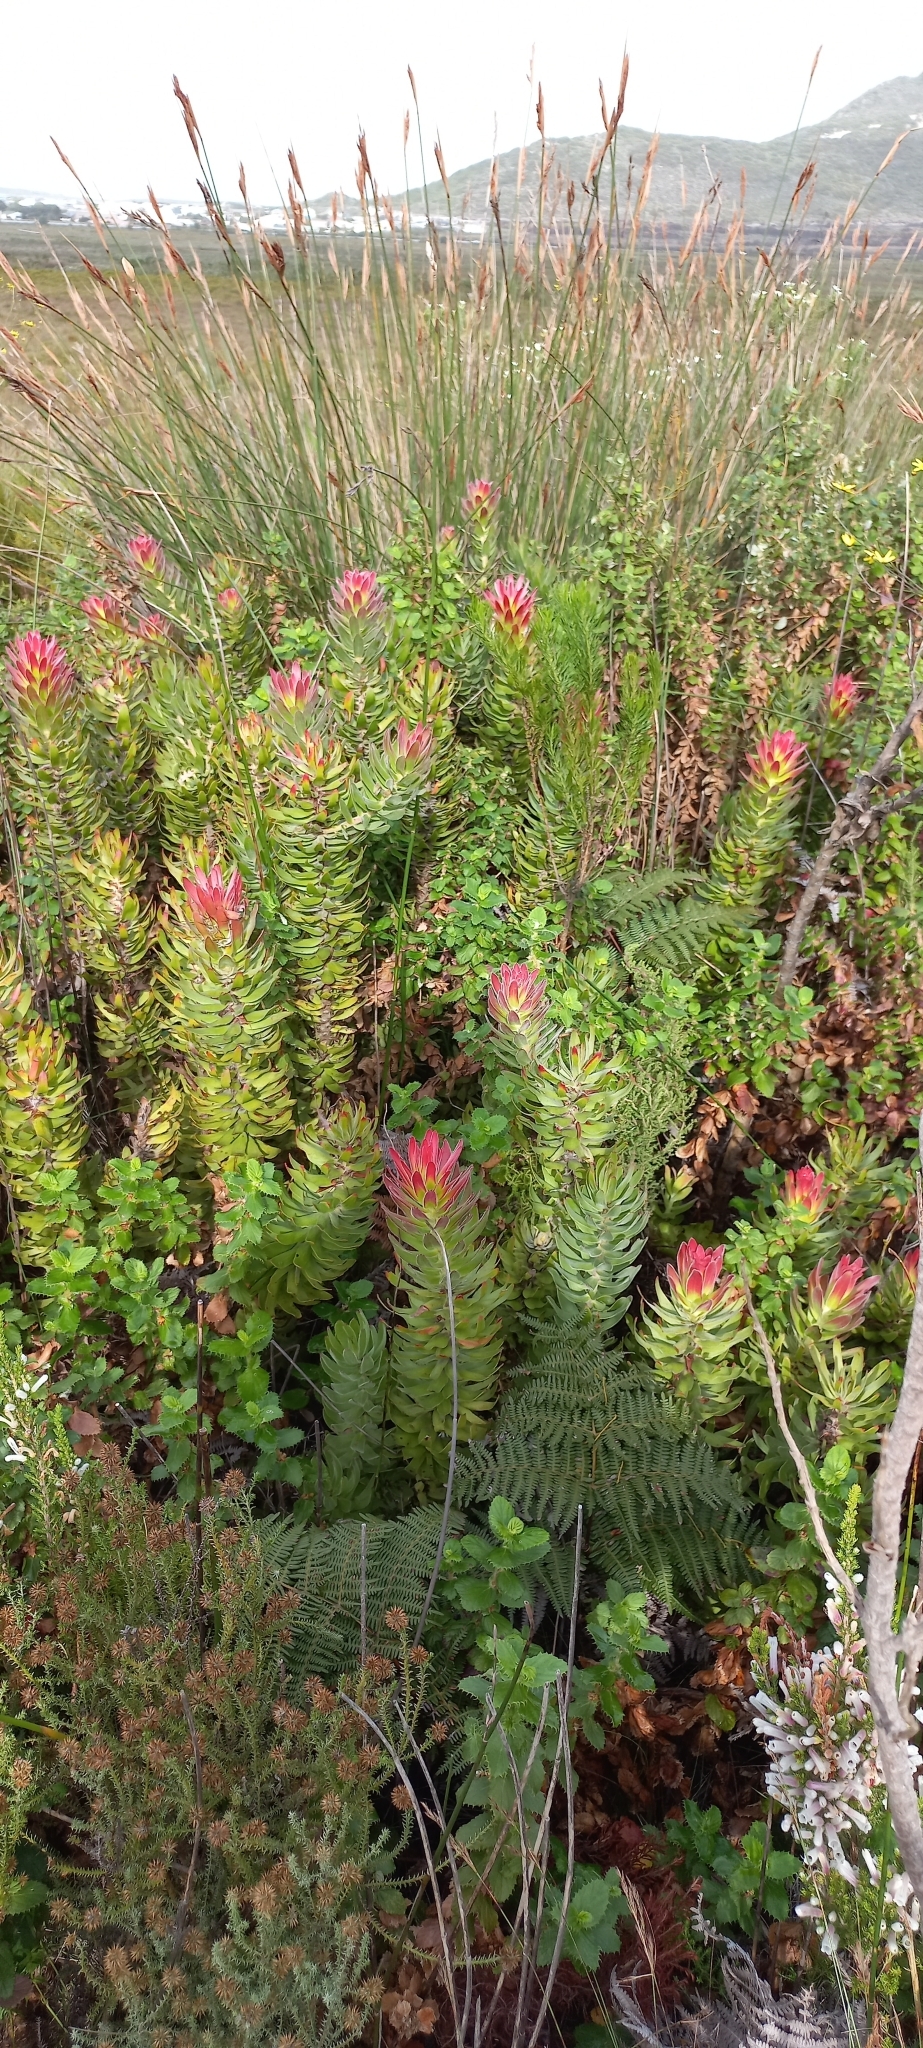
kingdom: Plantae
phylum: Tracheophyta
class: Magnoliopsida
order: Proteales
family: Proteaceae
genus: Mimetes
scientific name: Mimetes cucullatus
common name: Common pagoda
